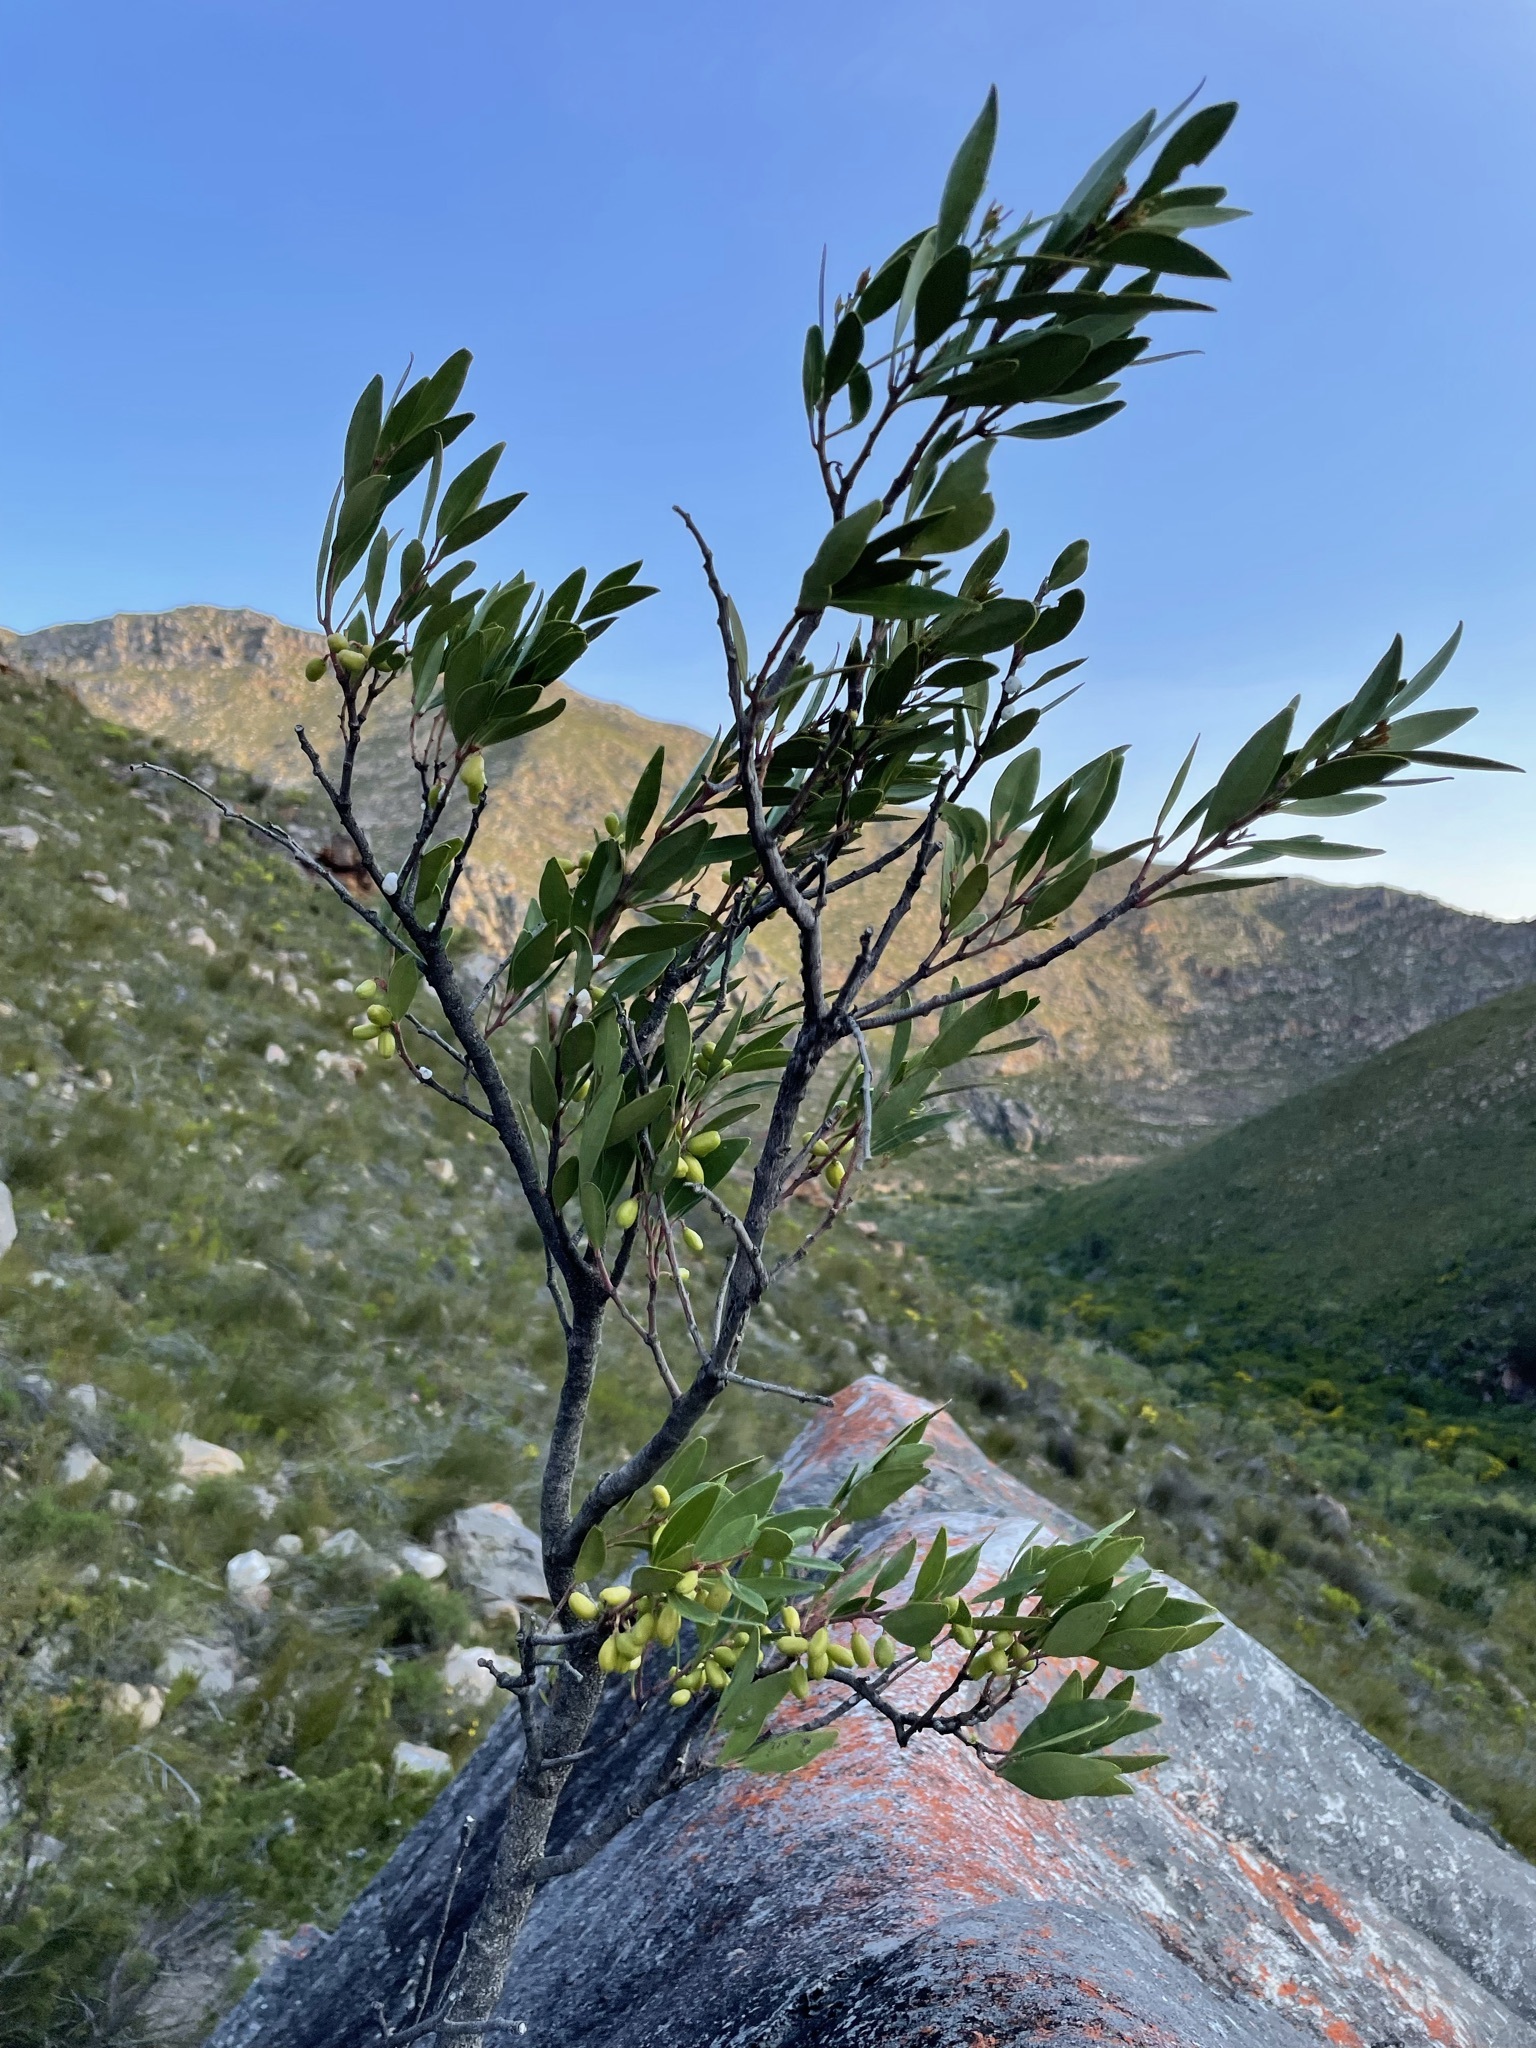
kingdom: Plantae
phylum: Tracheophyta
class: Magnoliopsida
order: Celastrales
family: Celastraceae
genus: Gymnosporia
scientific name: Gymnosporia laurina
